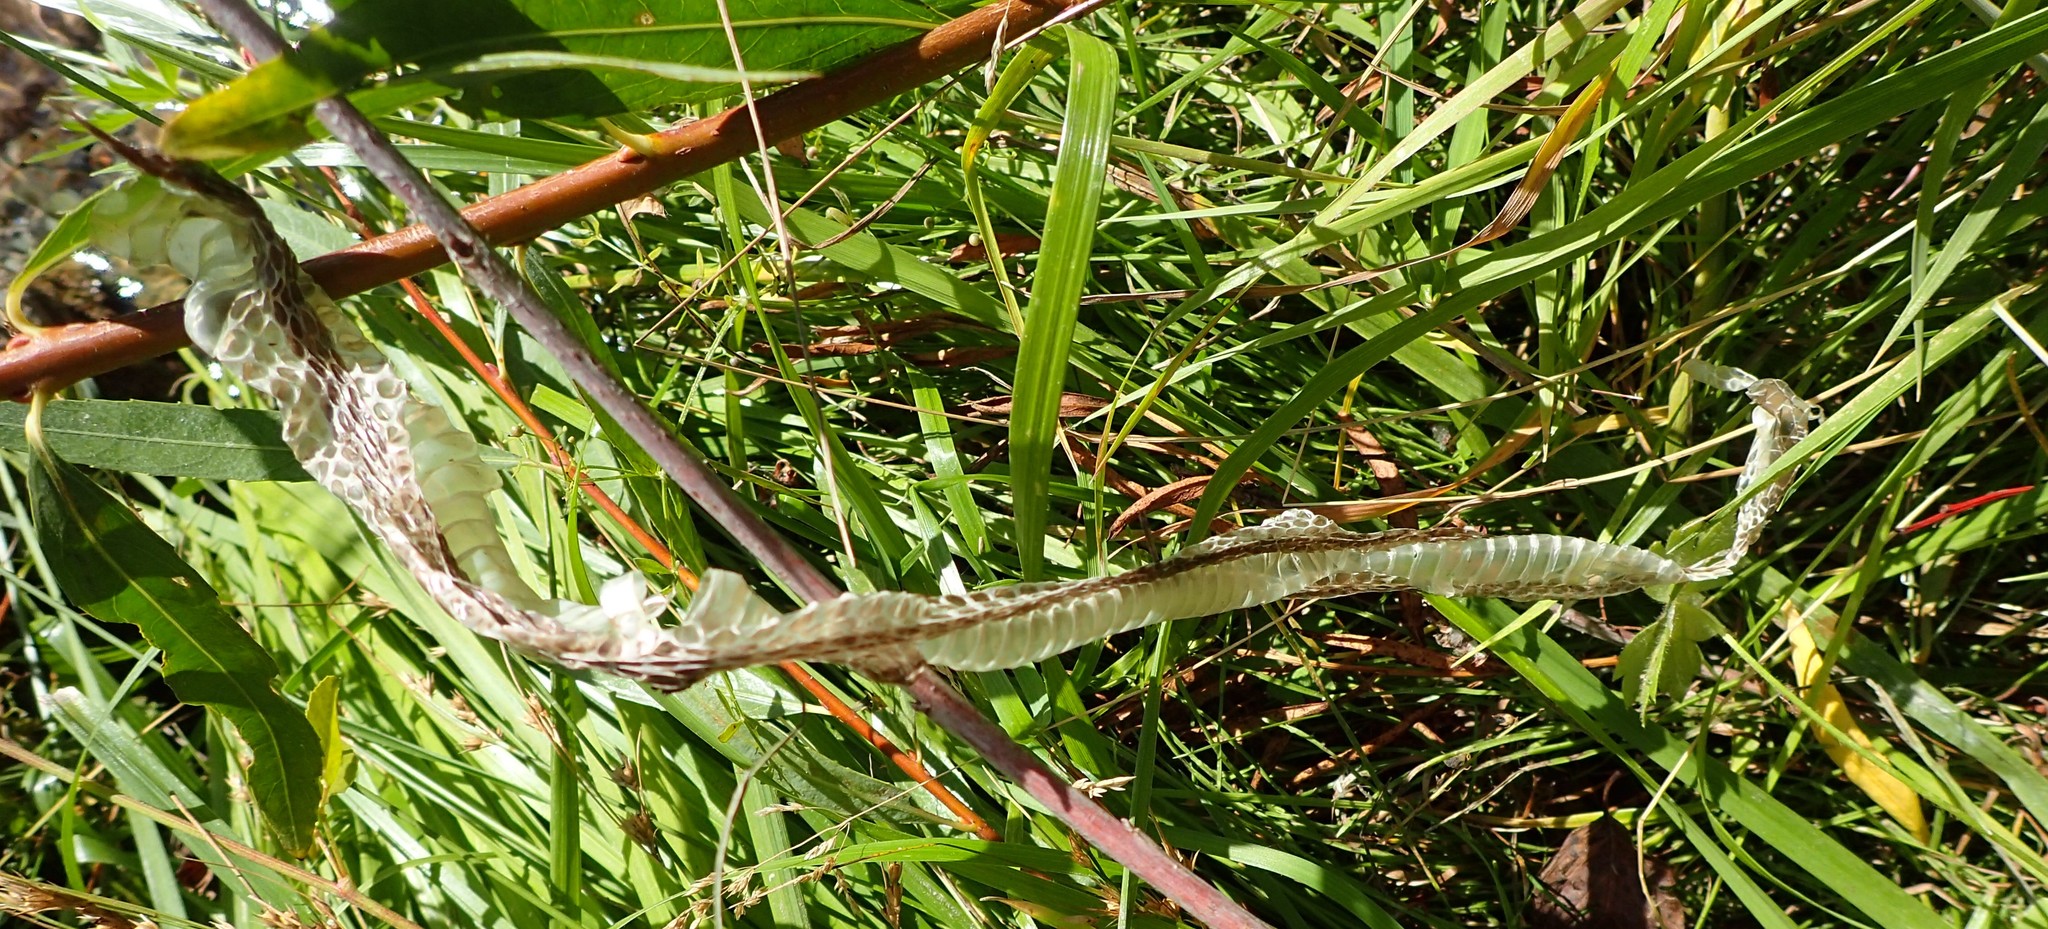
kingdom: Animalia
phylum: Chordata
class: Squamata
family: Colubridae
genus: Thamnophis
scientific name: Thamnophis
